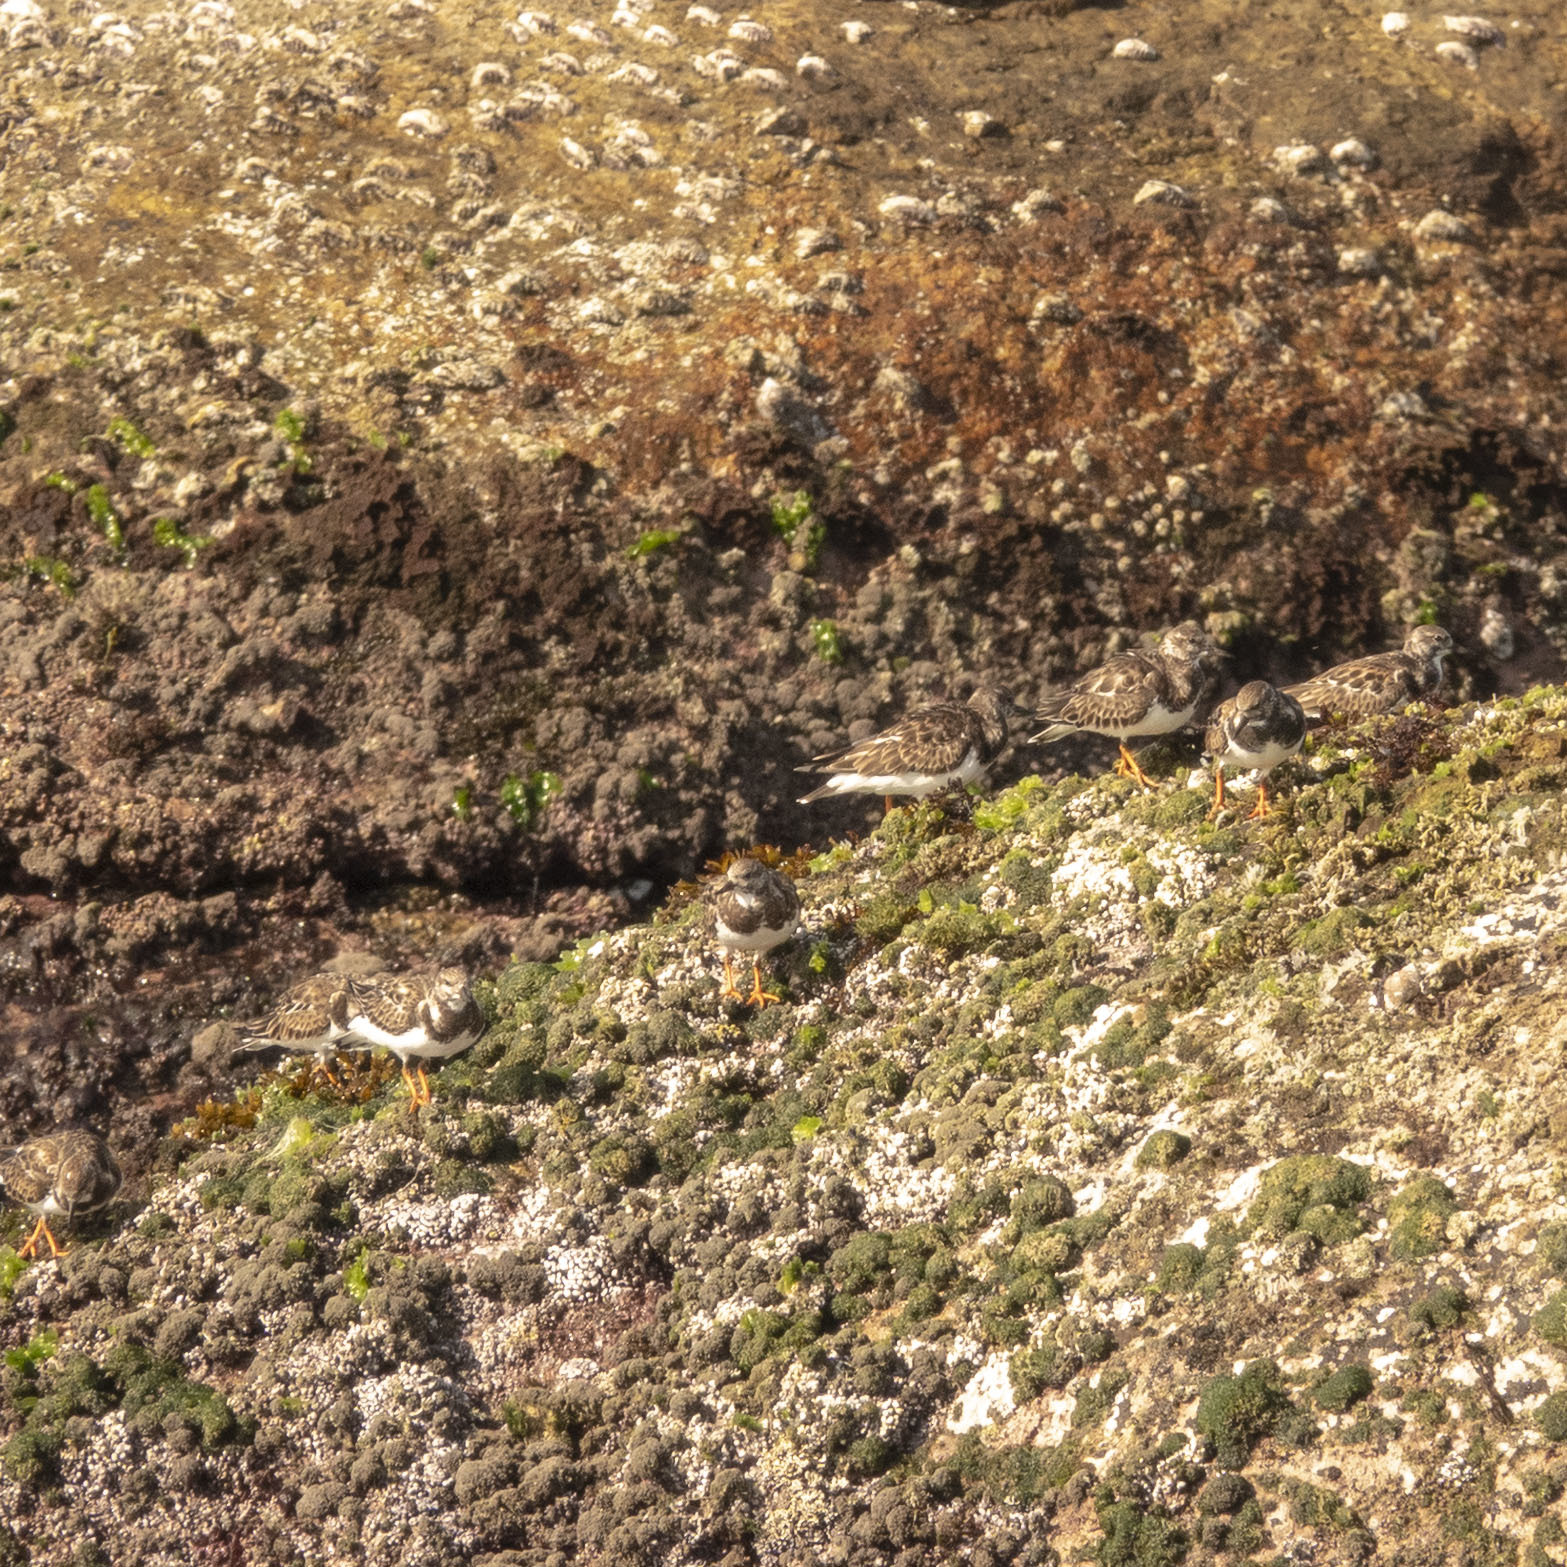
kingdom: Animalia
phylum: Chordata
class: Aves
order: Charadriiformes
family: Scolopacidae
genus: Arenaria
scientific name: Arenaria interpres
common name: Ruddy turnstone
